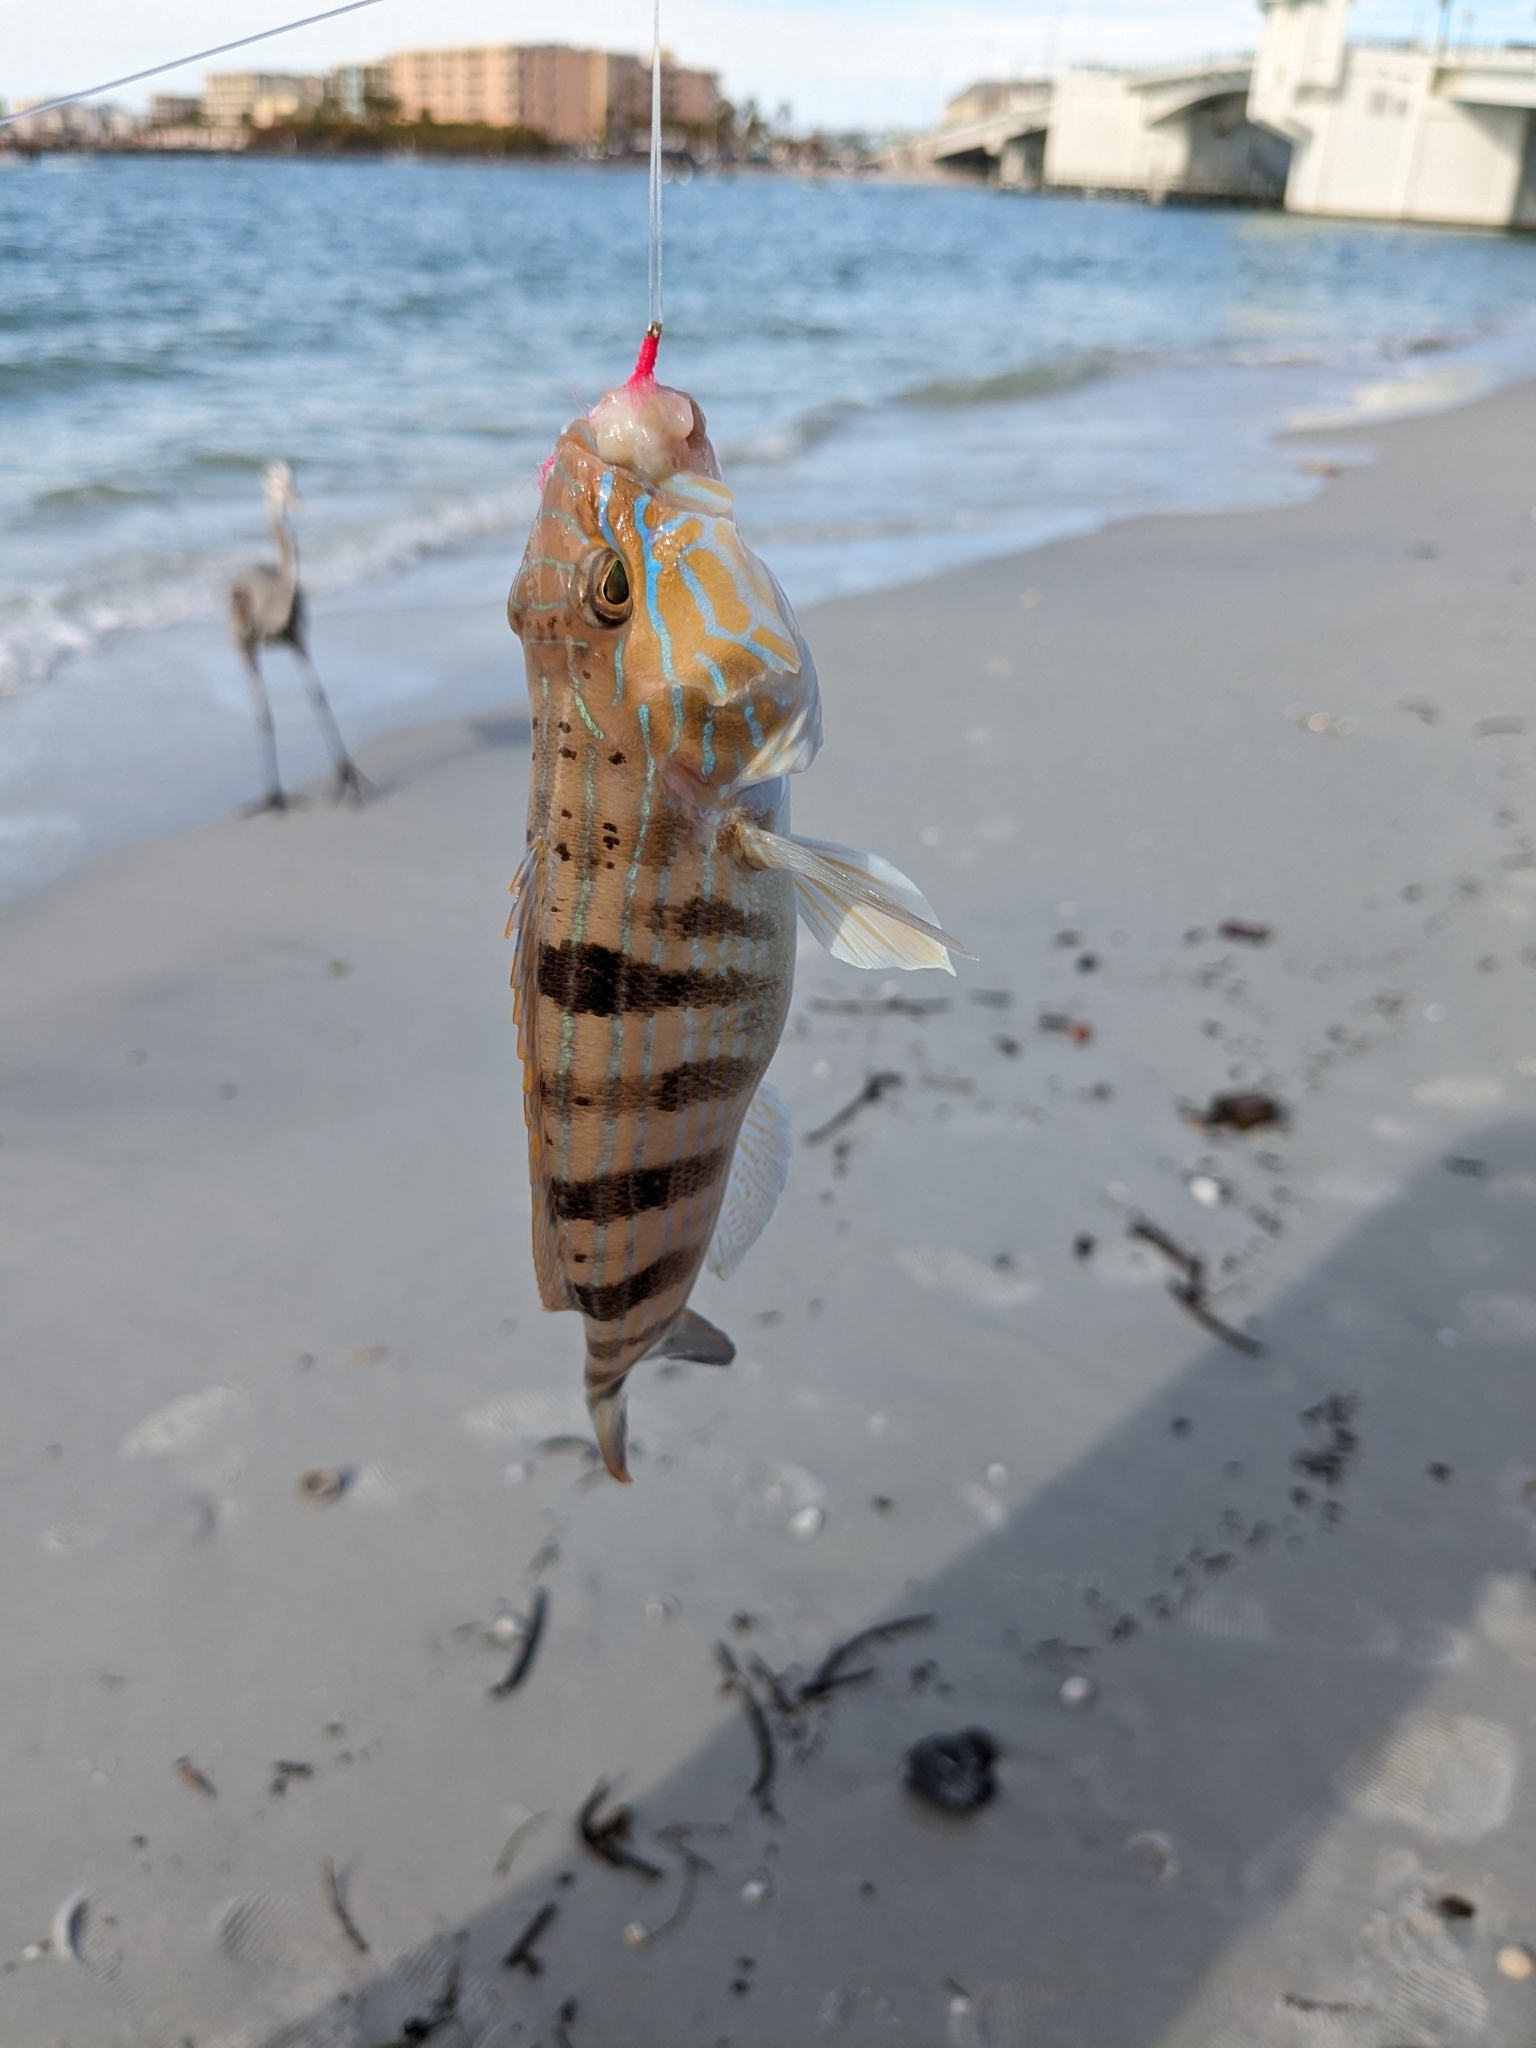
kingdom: Animalia
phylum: Chordata
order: Perciformes
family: Serranidae
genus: Diplectrum
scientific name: Diplectrum formosum
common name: Sand perch
